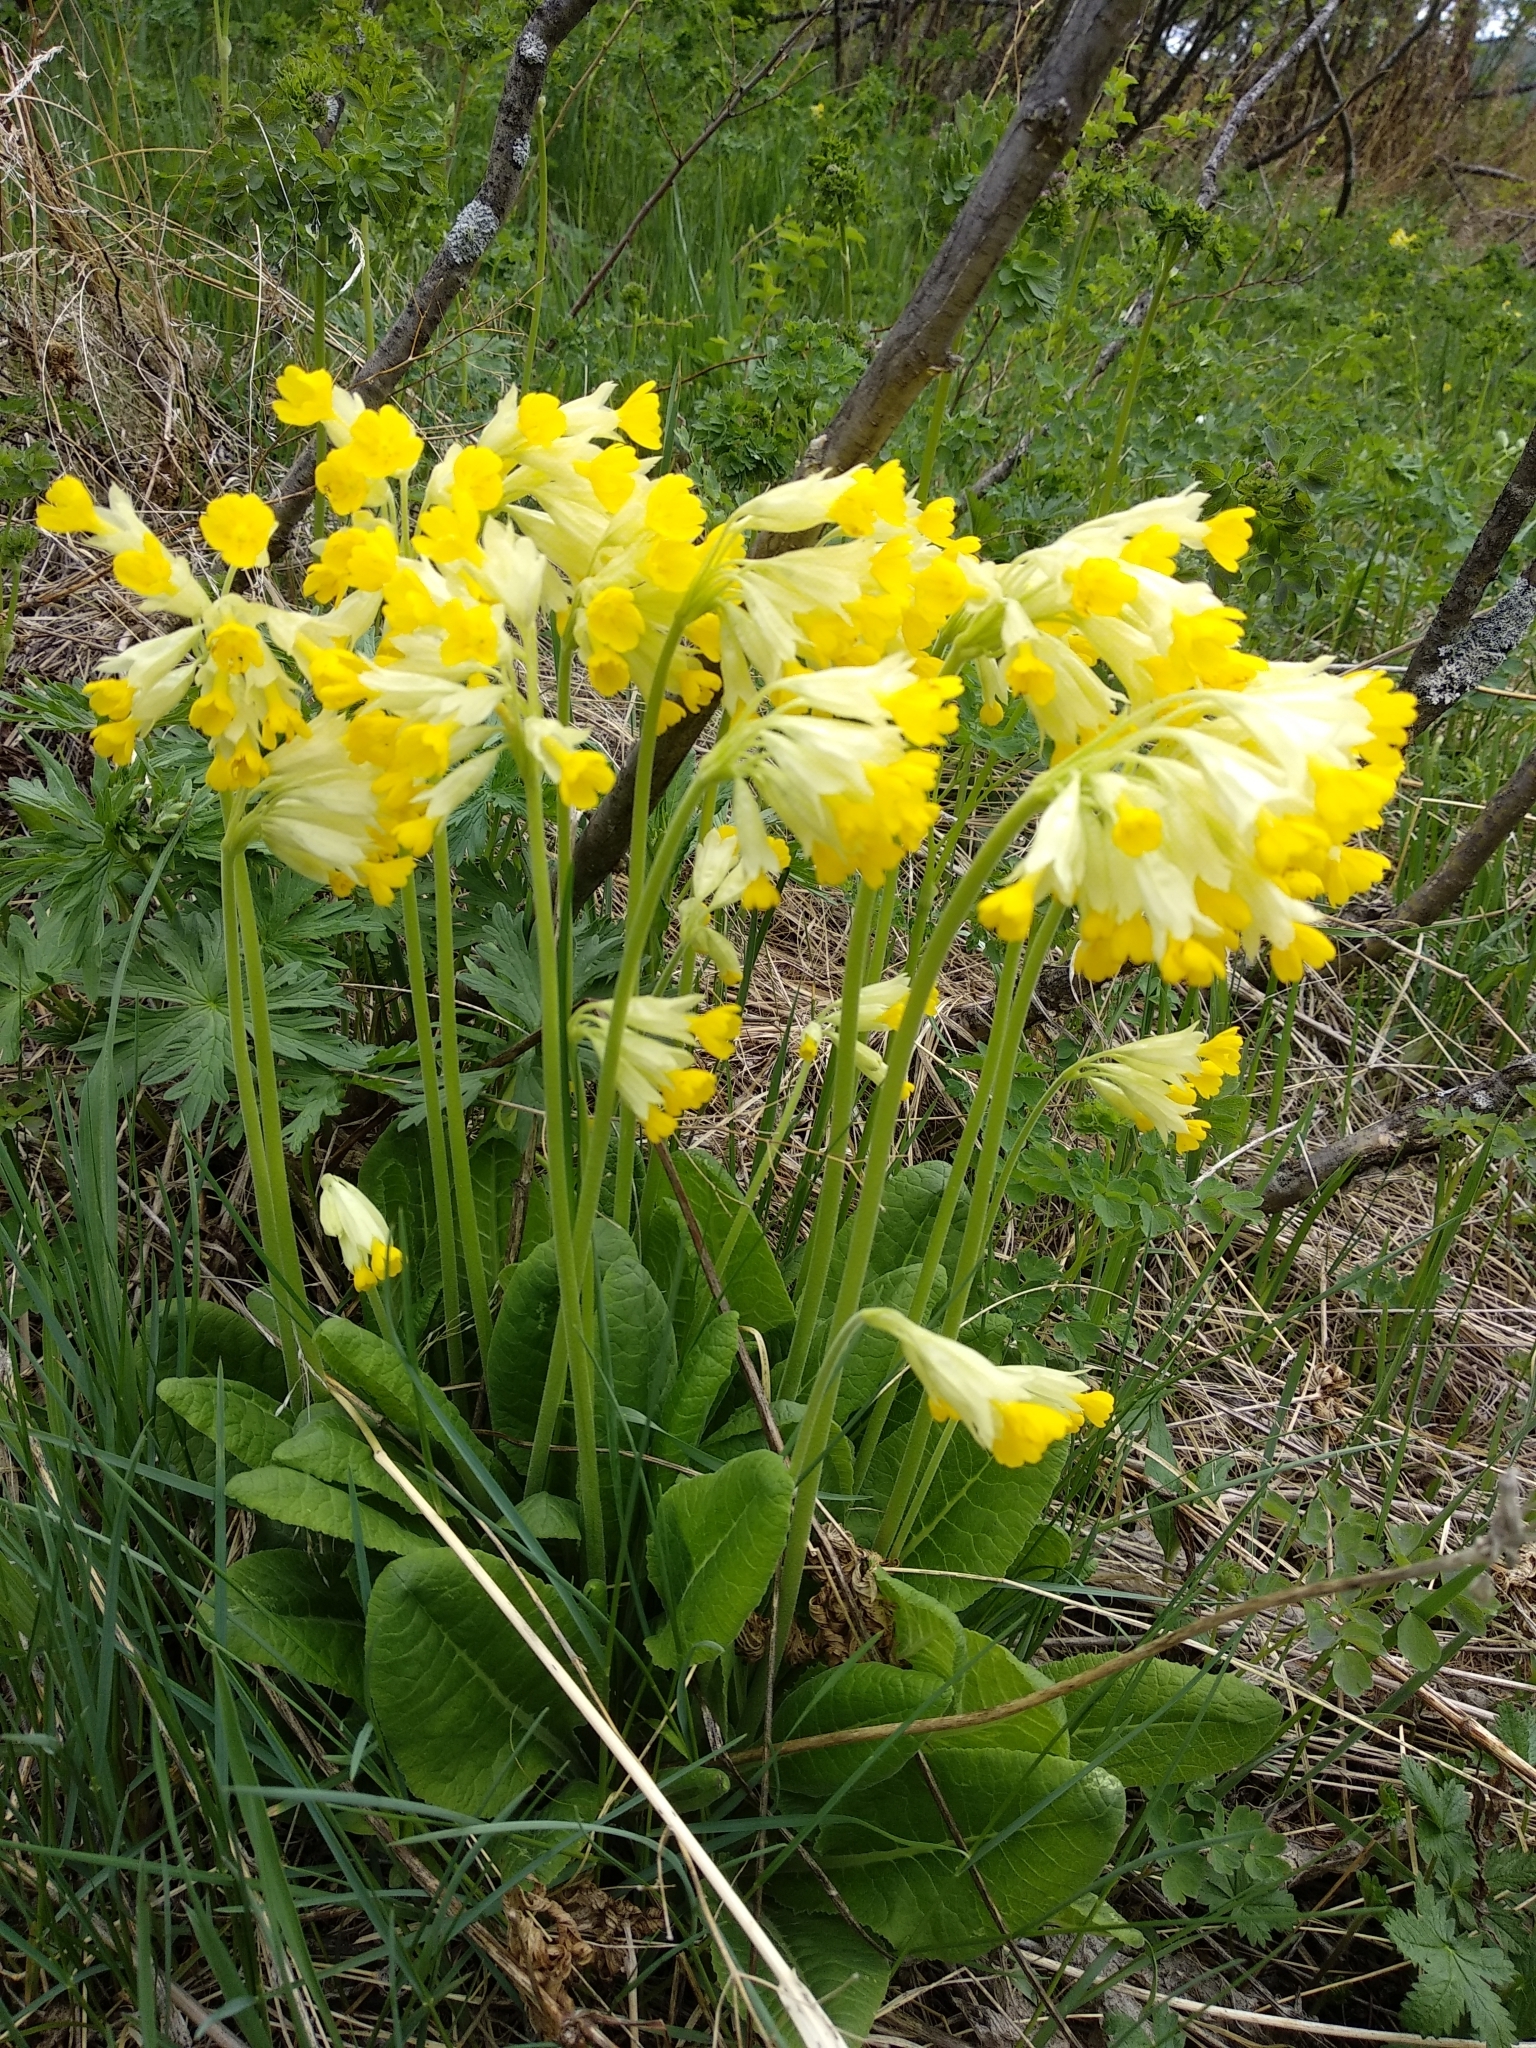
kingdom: Plantae
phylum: Tracheophyta
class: Magnoliopsida
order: Ericales
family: Primulaceae
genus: Primula
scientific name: Primula veris
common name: Cowslip
